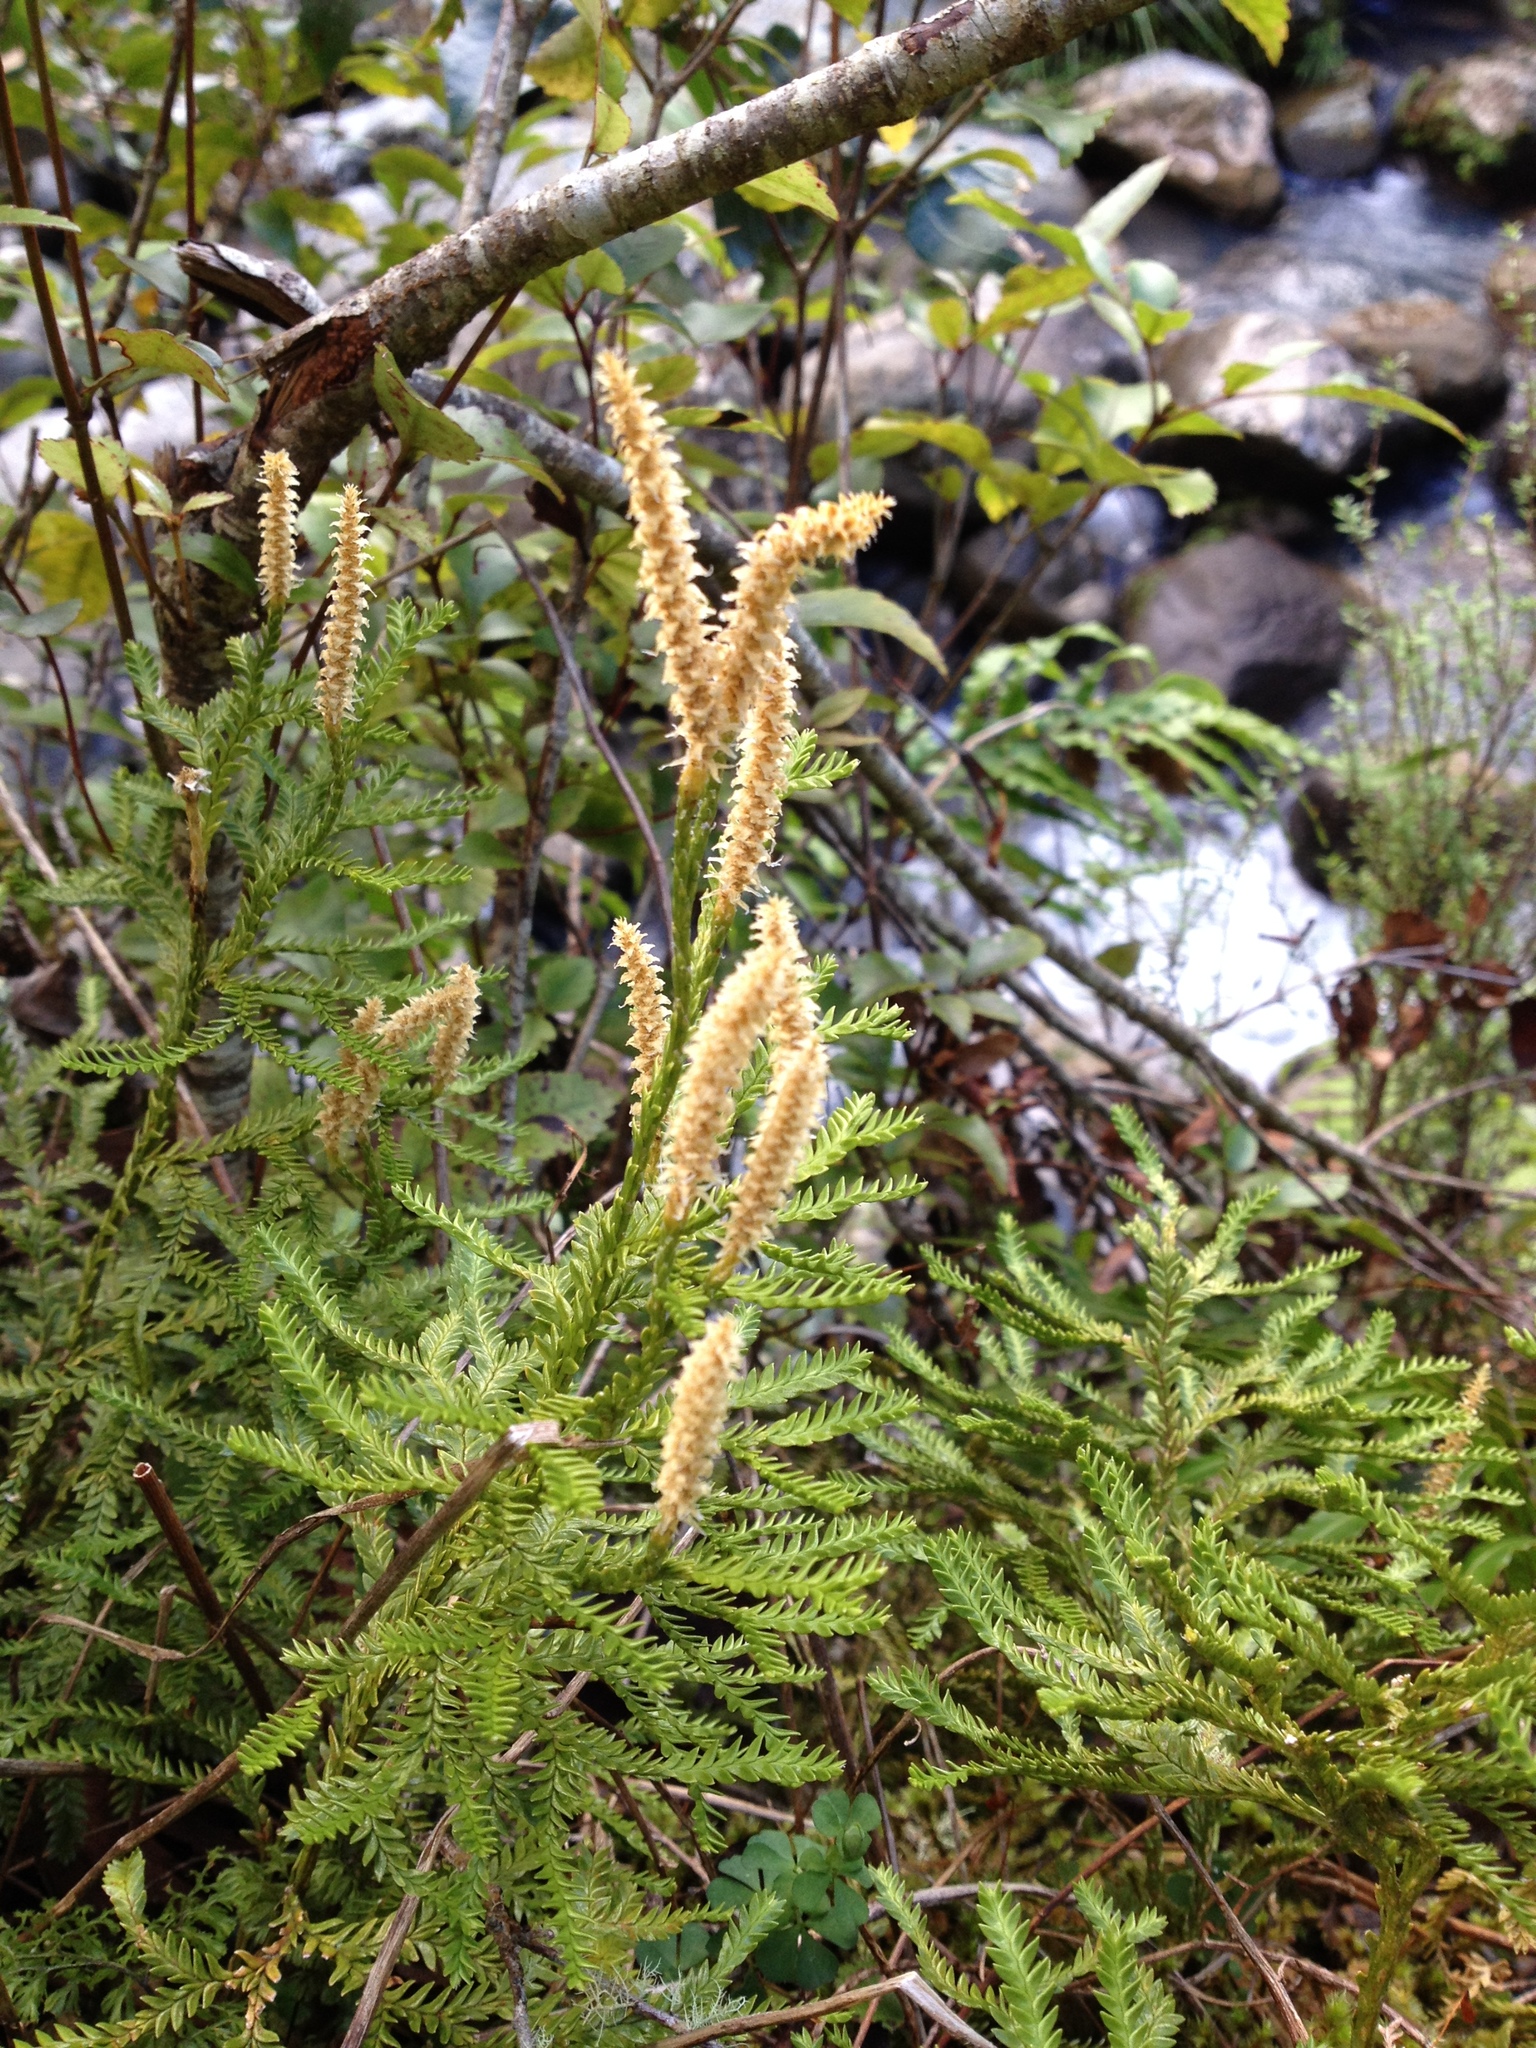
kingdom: Plantae
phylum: Tracheophyta
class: Lycopodiopsida
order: Lycopodiales
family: Lycopodiaceae
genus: Diphasium
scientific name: Diphasium scariosum
